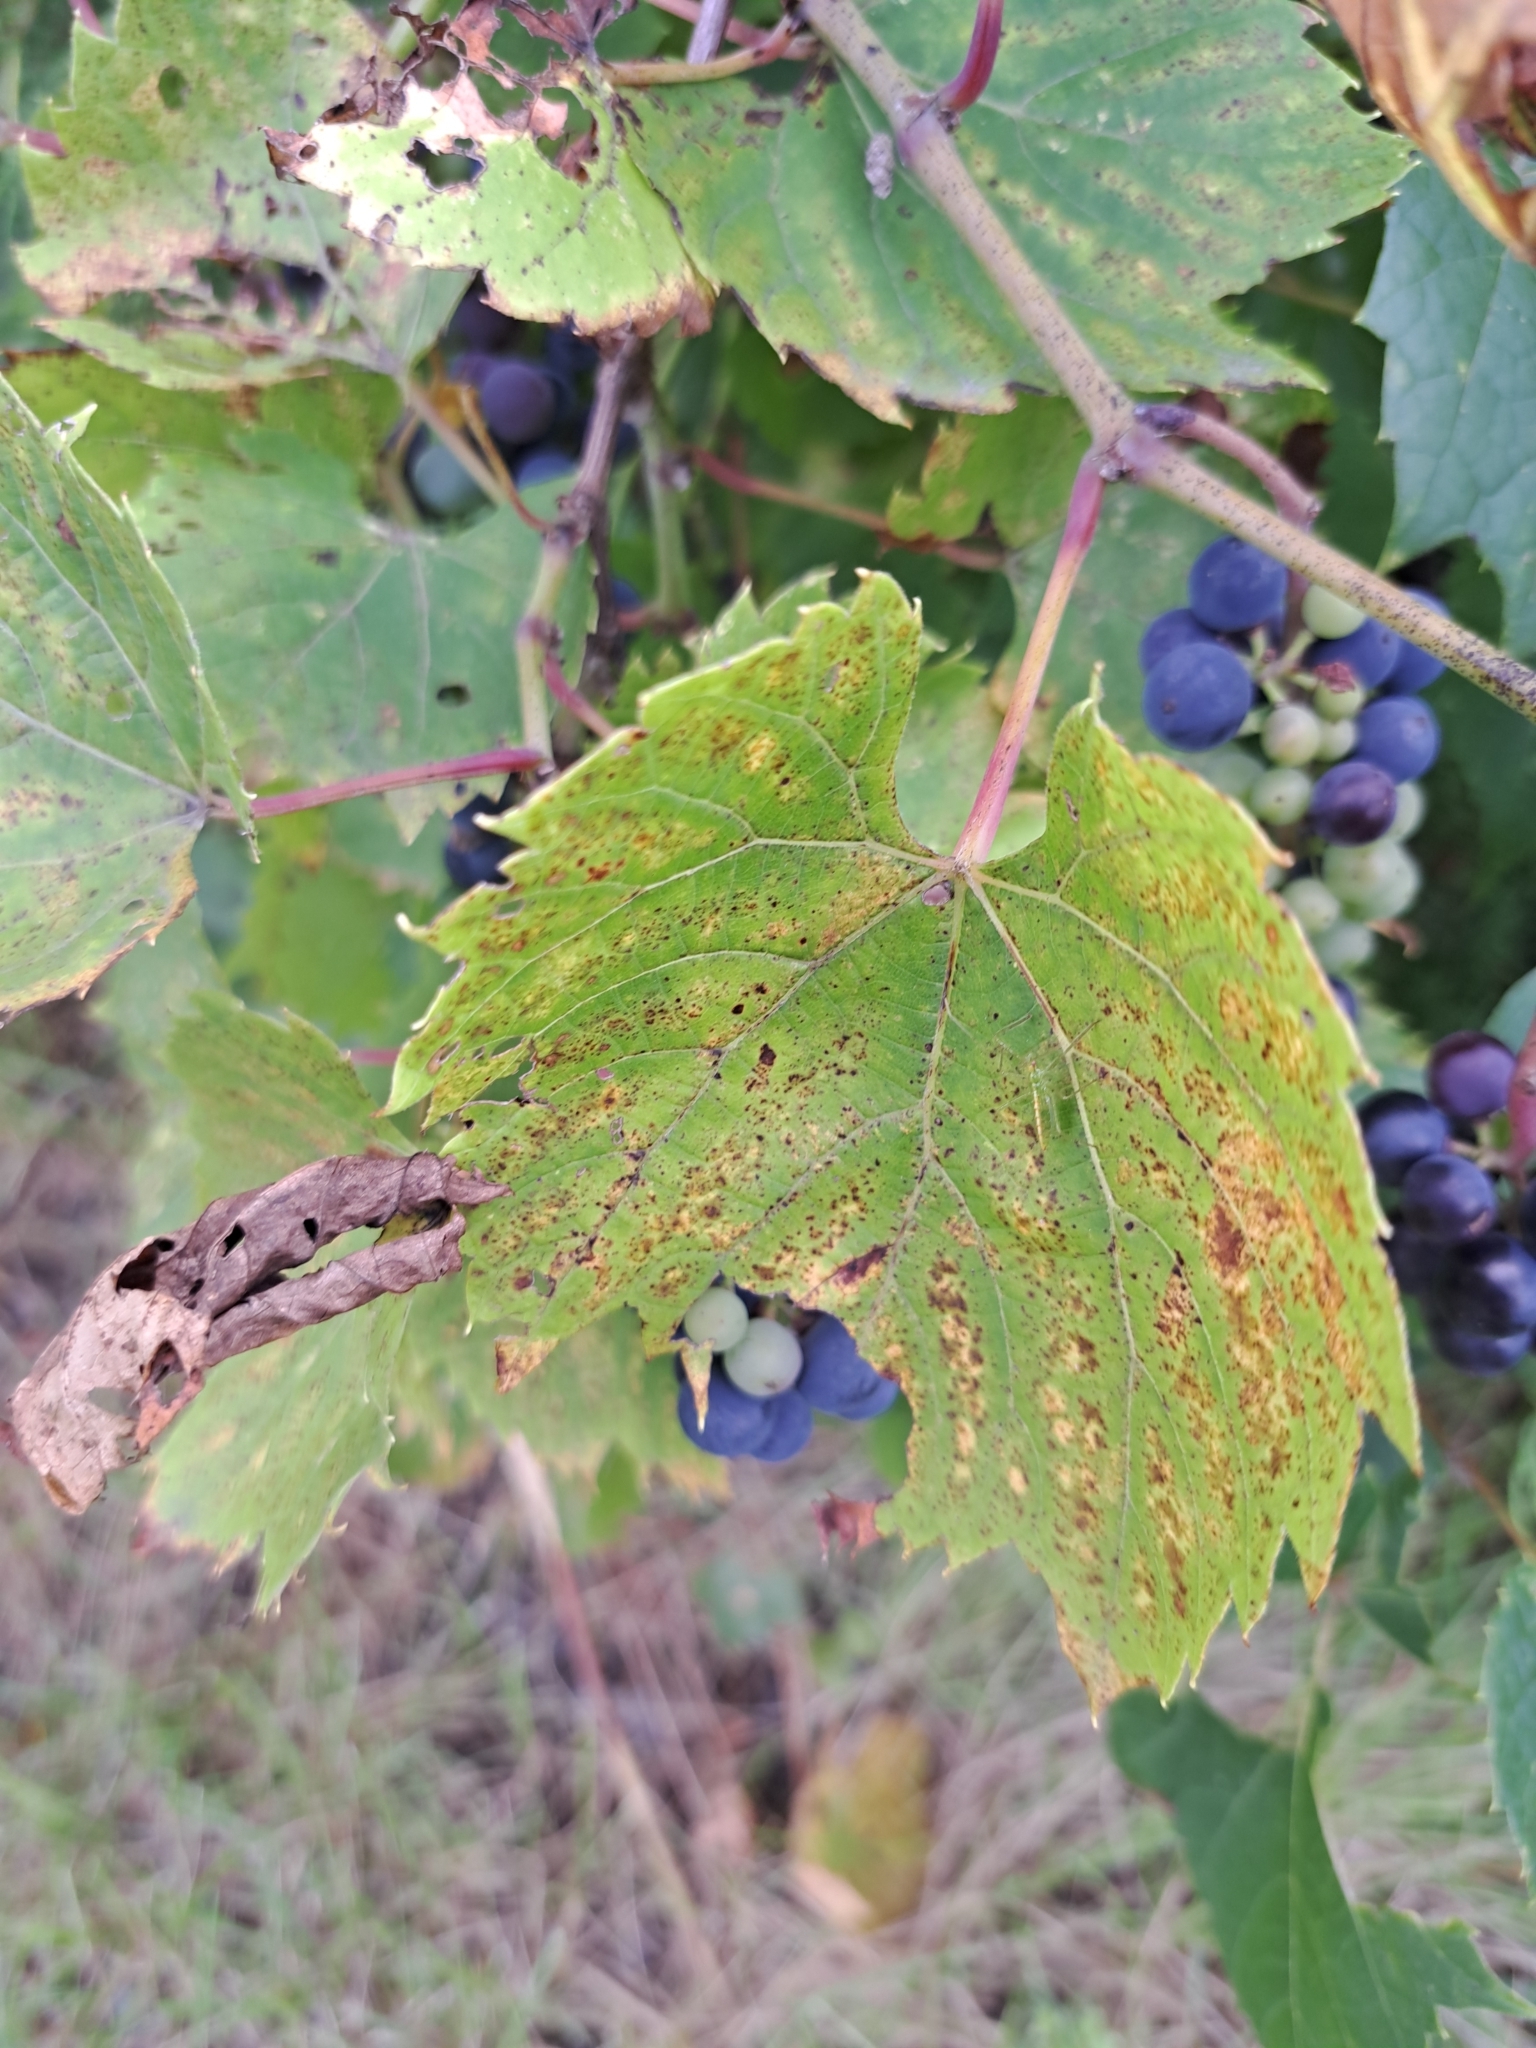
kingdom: Plantae
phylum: Tracheophyta
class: Magnoliopsida
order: Vitales
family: Vitaceae
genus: Vitis
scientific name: Vitis riparia
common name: Frost grape
